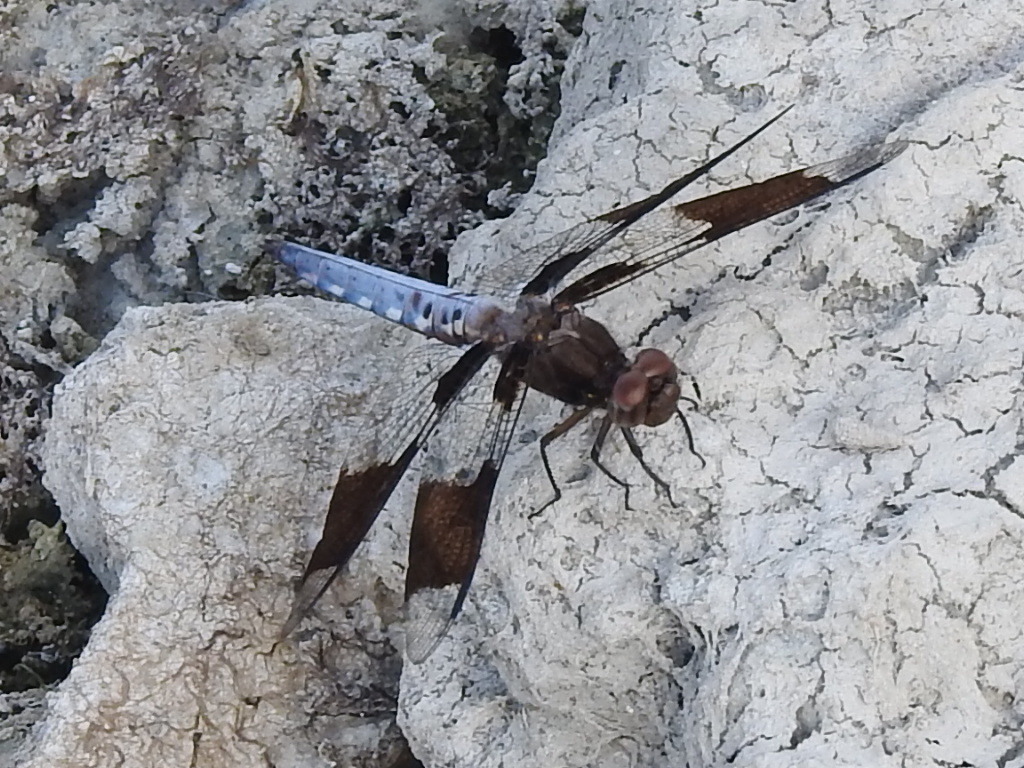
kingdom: Animalia
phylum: Arthropoda
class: Insecta
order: Odonata
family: Libellulidae
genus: Plathemis
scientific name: Plathemis lydia
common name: Common whitetail
